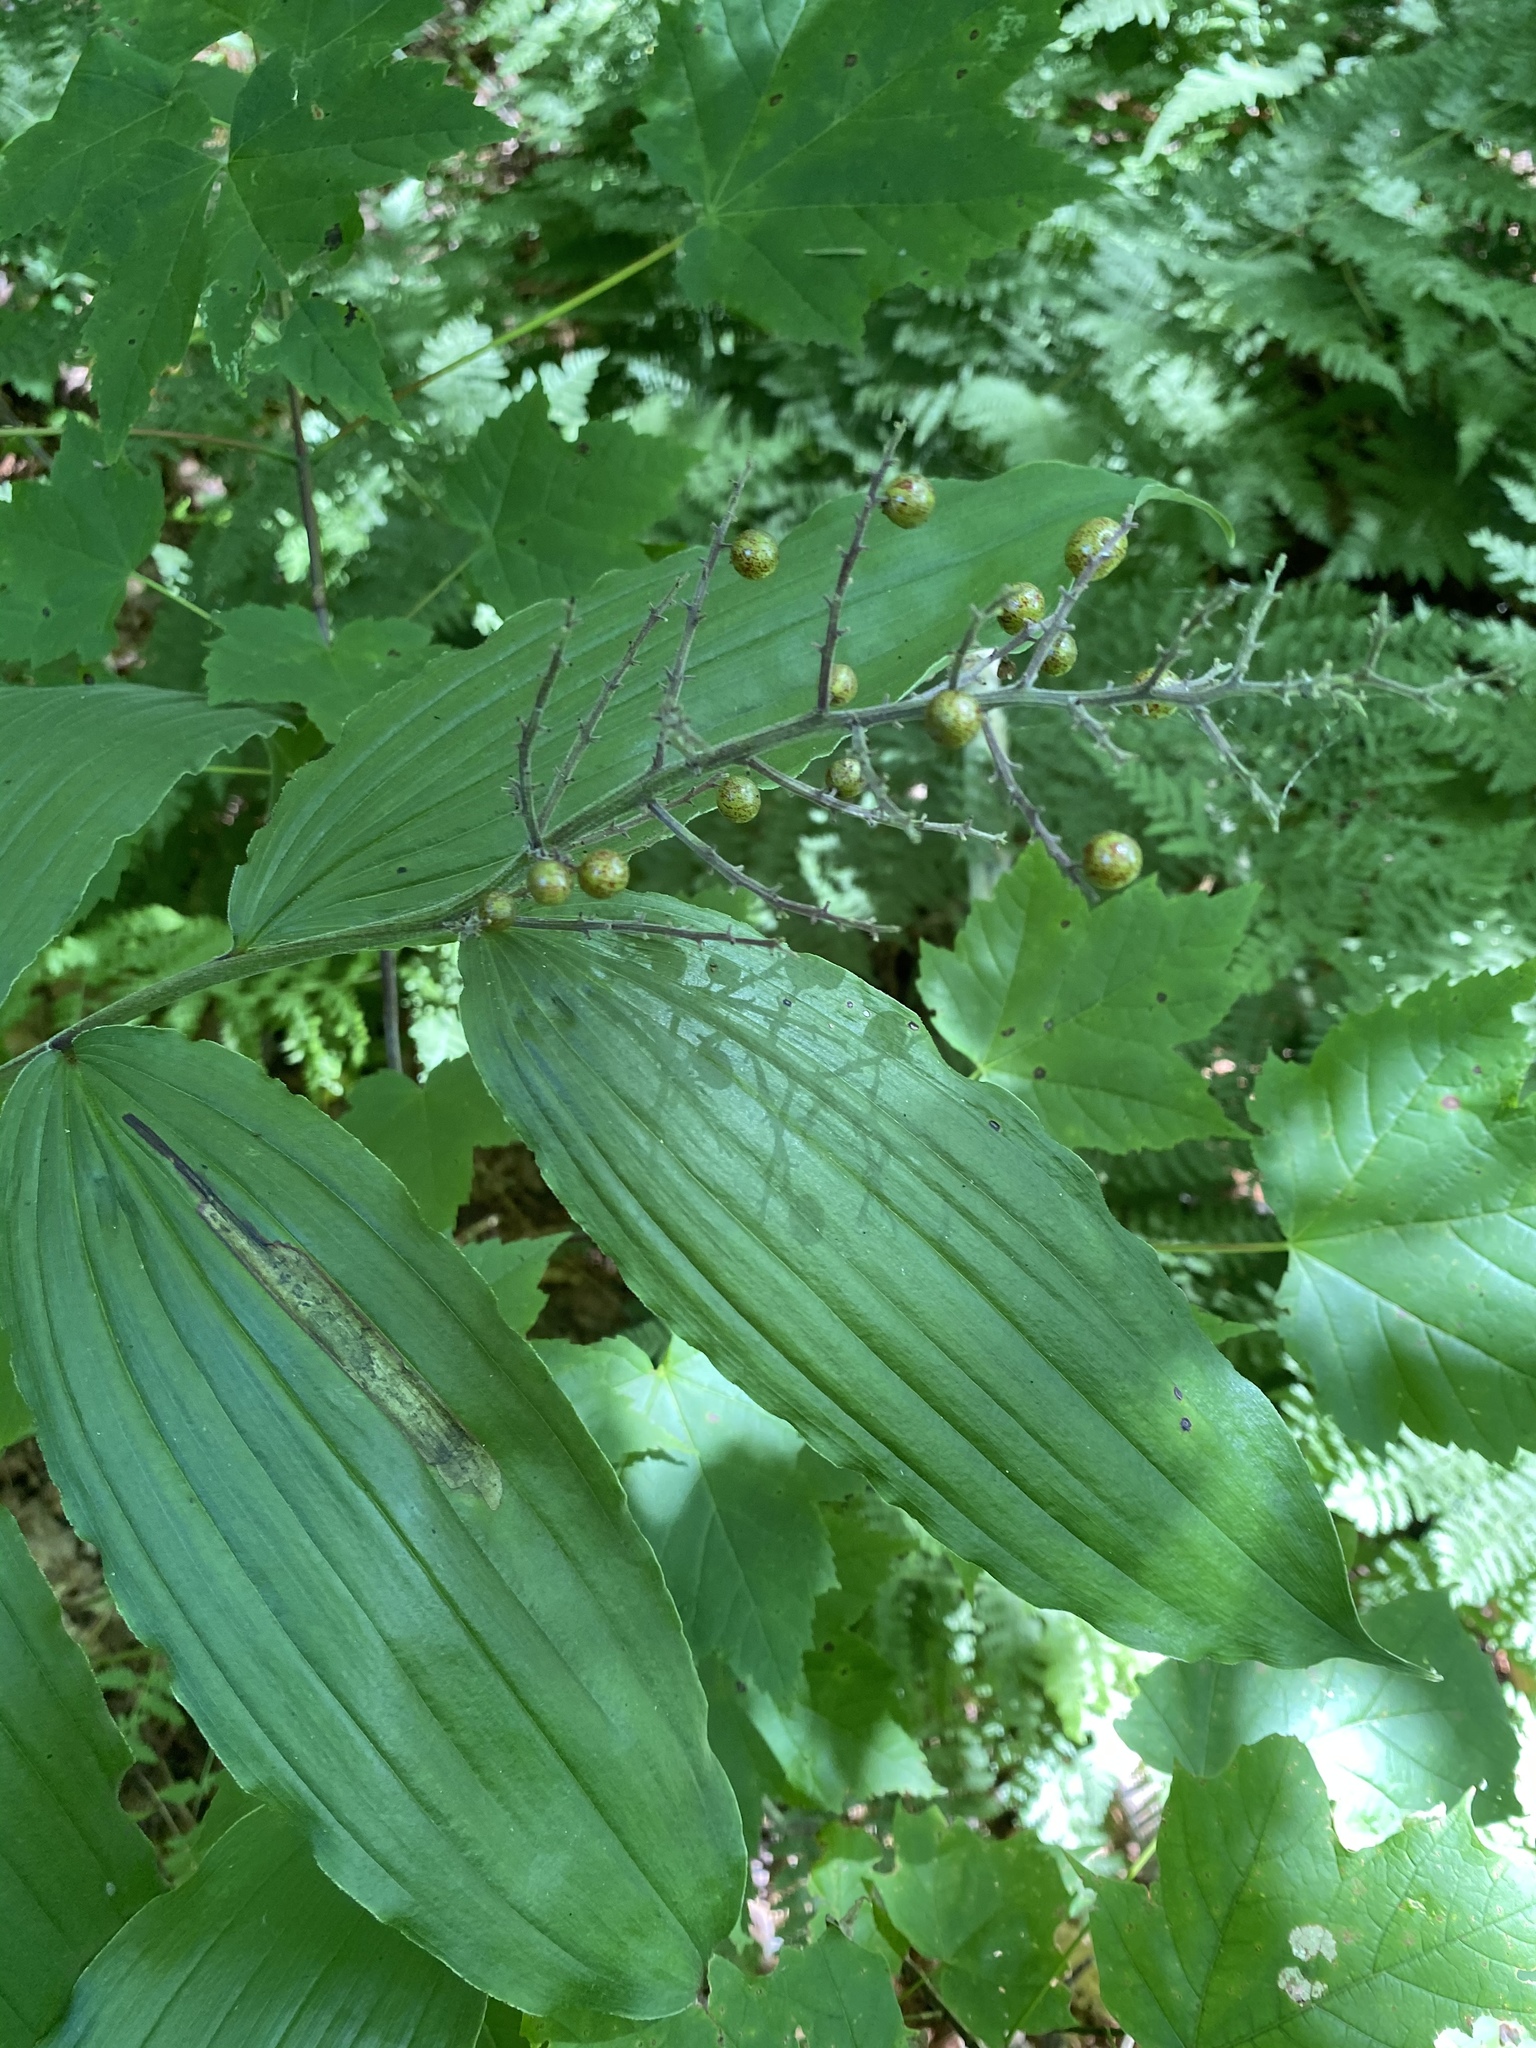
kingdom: Plantae
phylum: Tracheophyta
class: Liliopsida
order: Asparagales
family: Asparagaceae
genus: Maianthemum
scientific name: Maianthemum racemosum
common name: False spikenard
